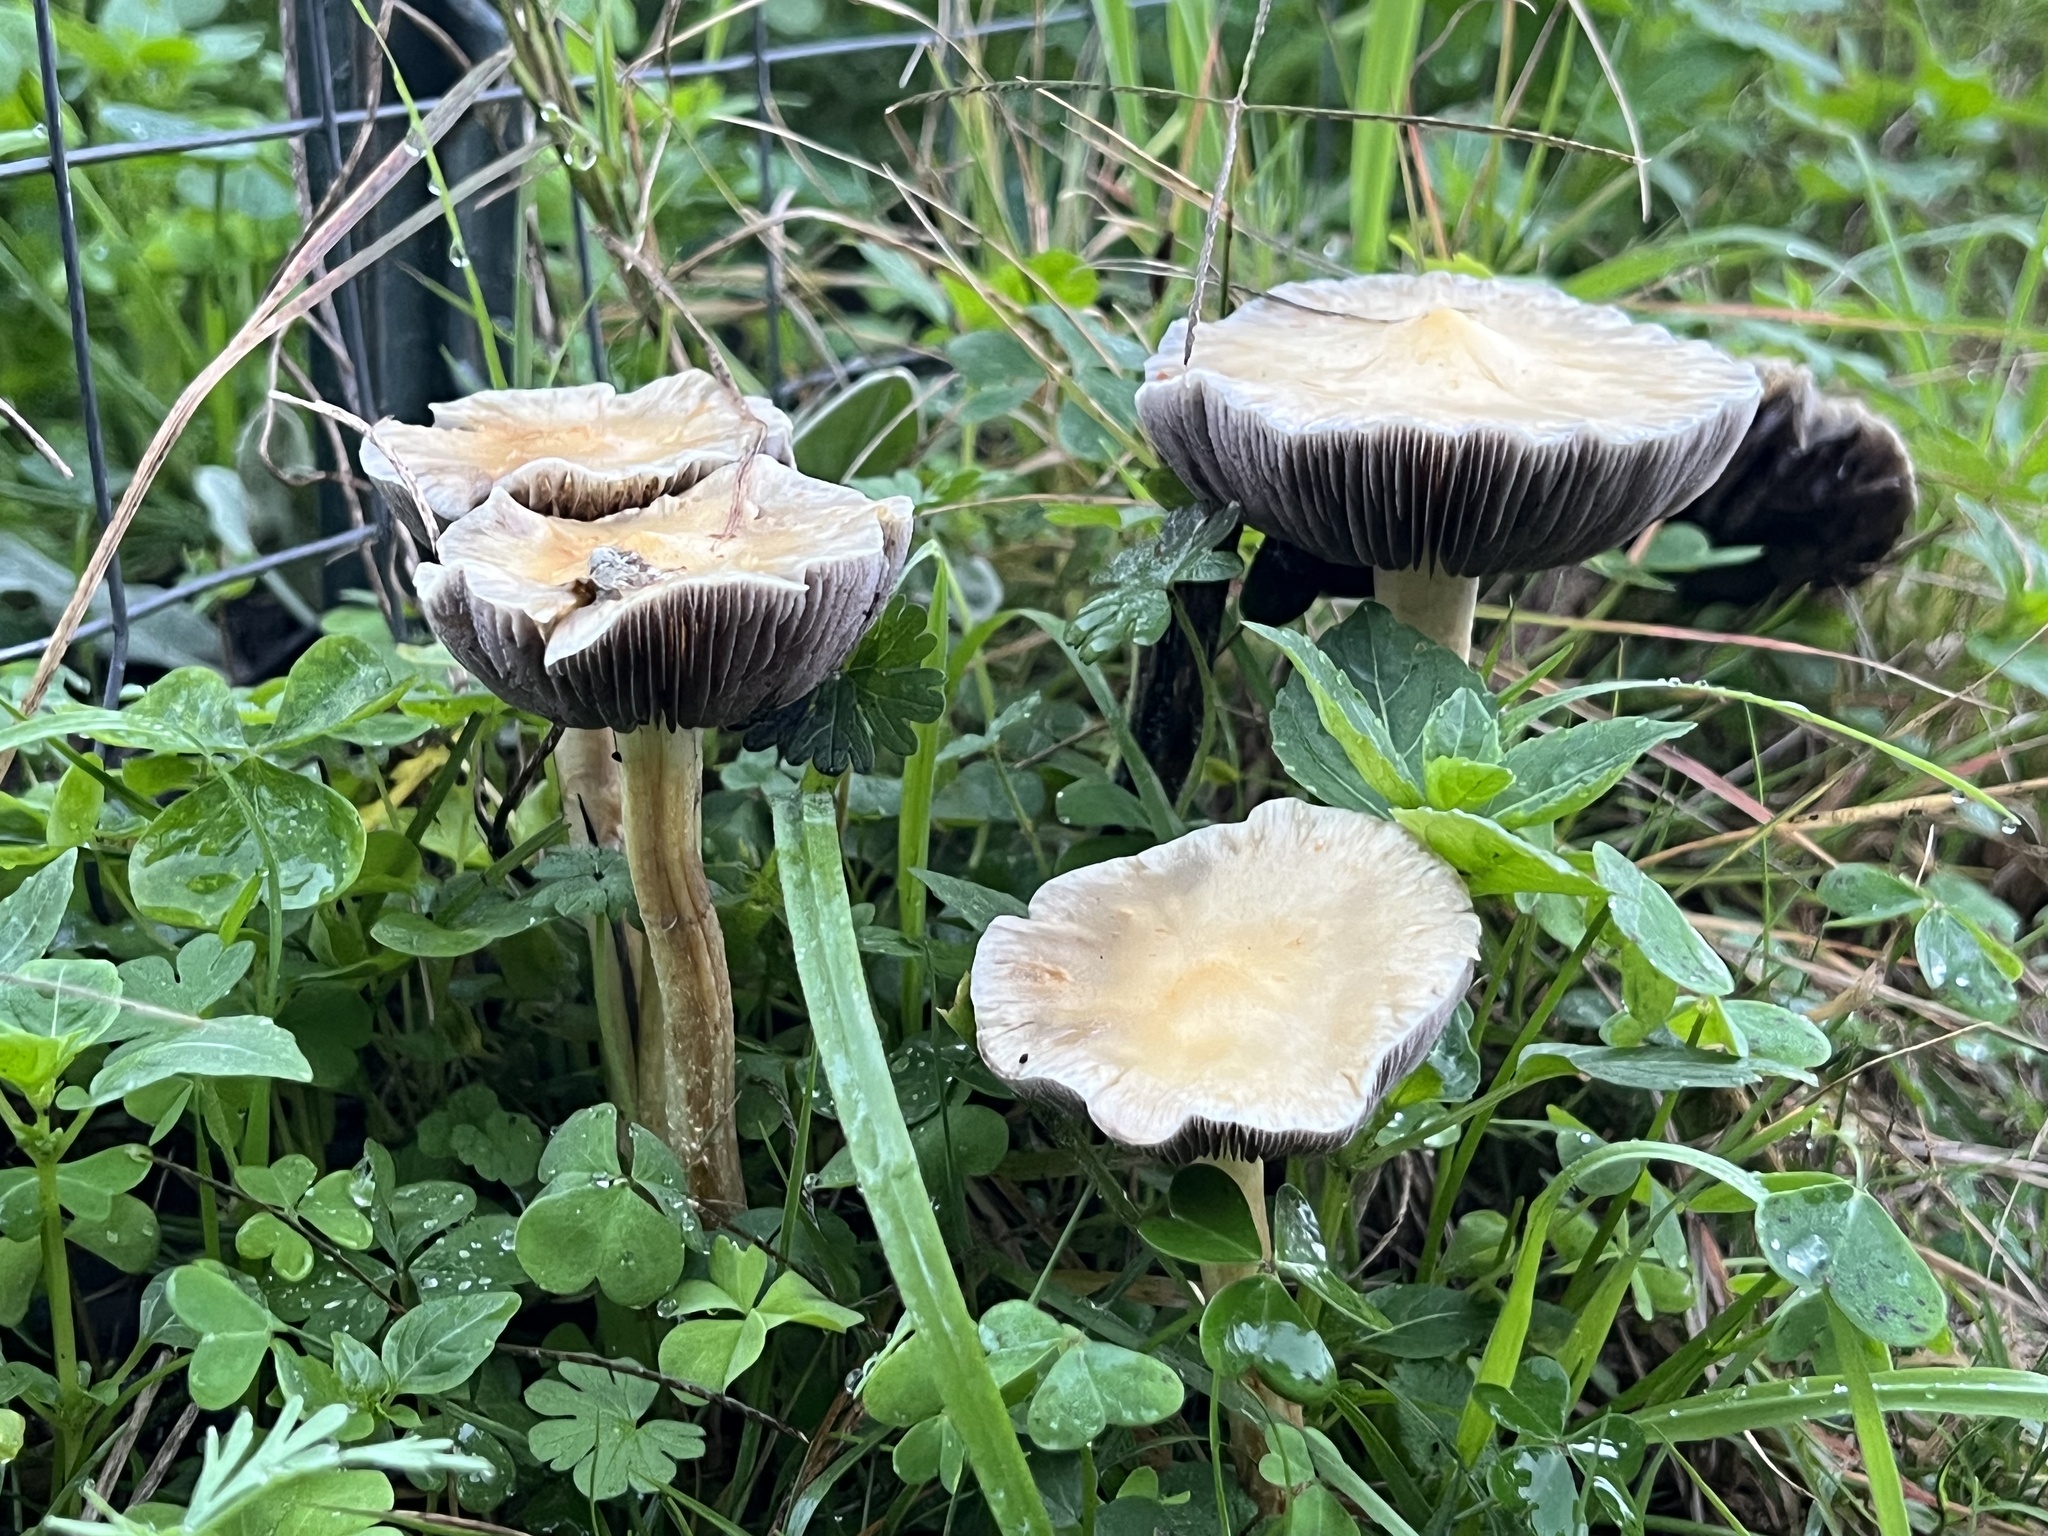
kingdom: Fungi
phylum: Basidiomycota
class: Agaricomycetes
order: Agaricales
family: Strophariaceae
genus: Leratiomyces
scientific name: Leratiomyces percevalii
